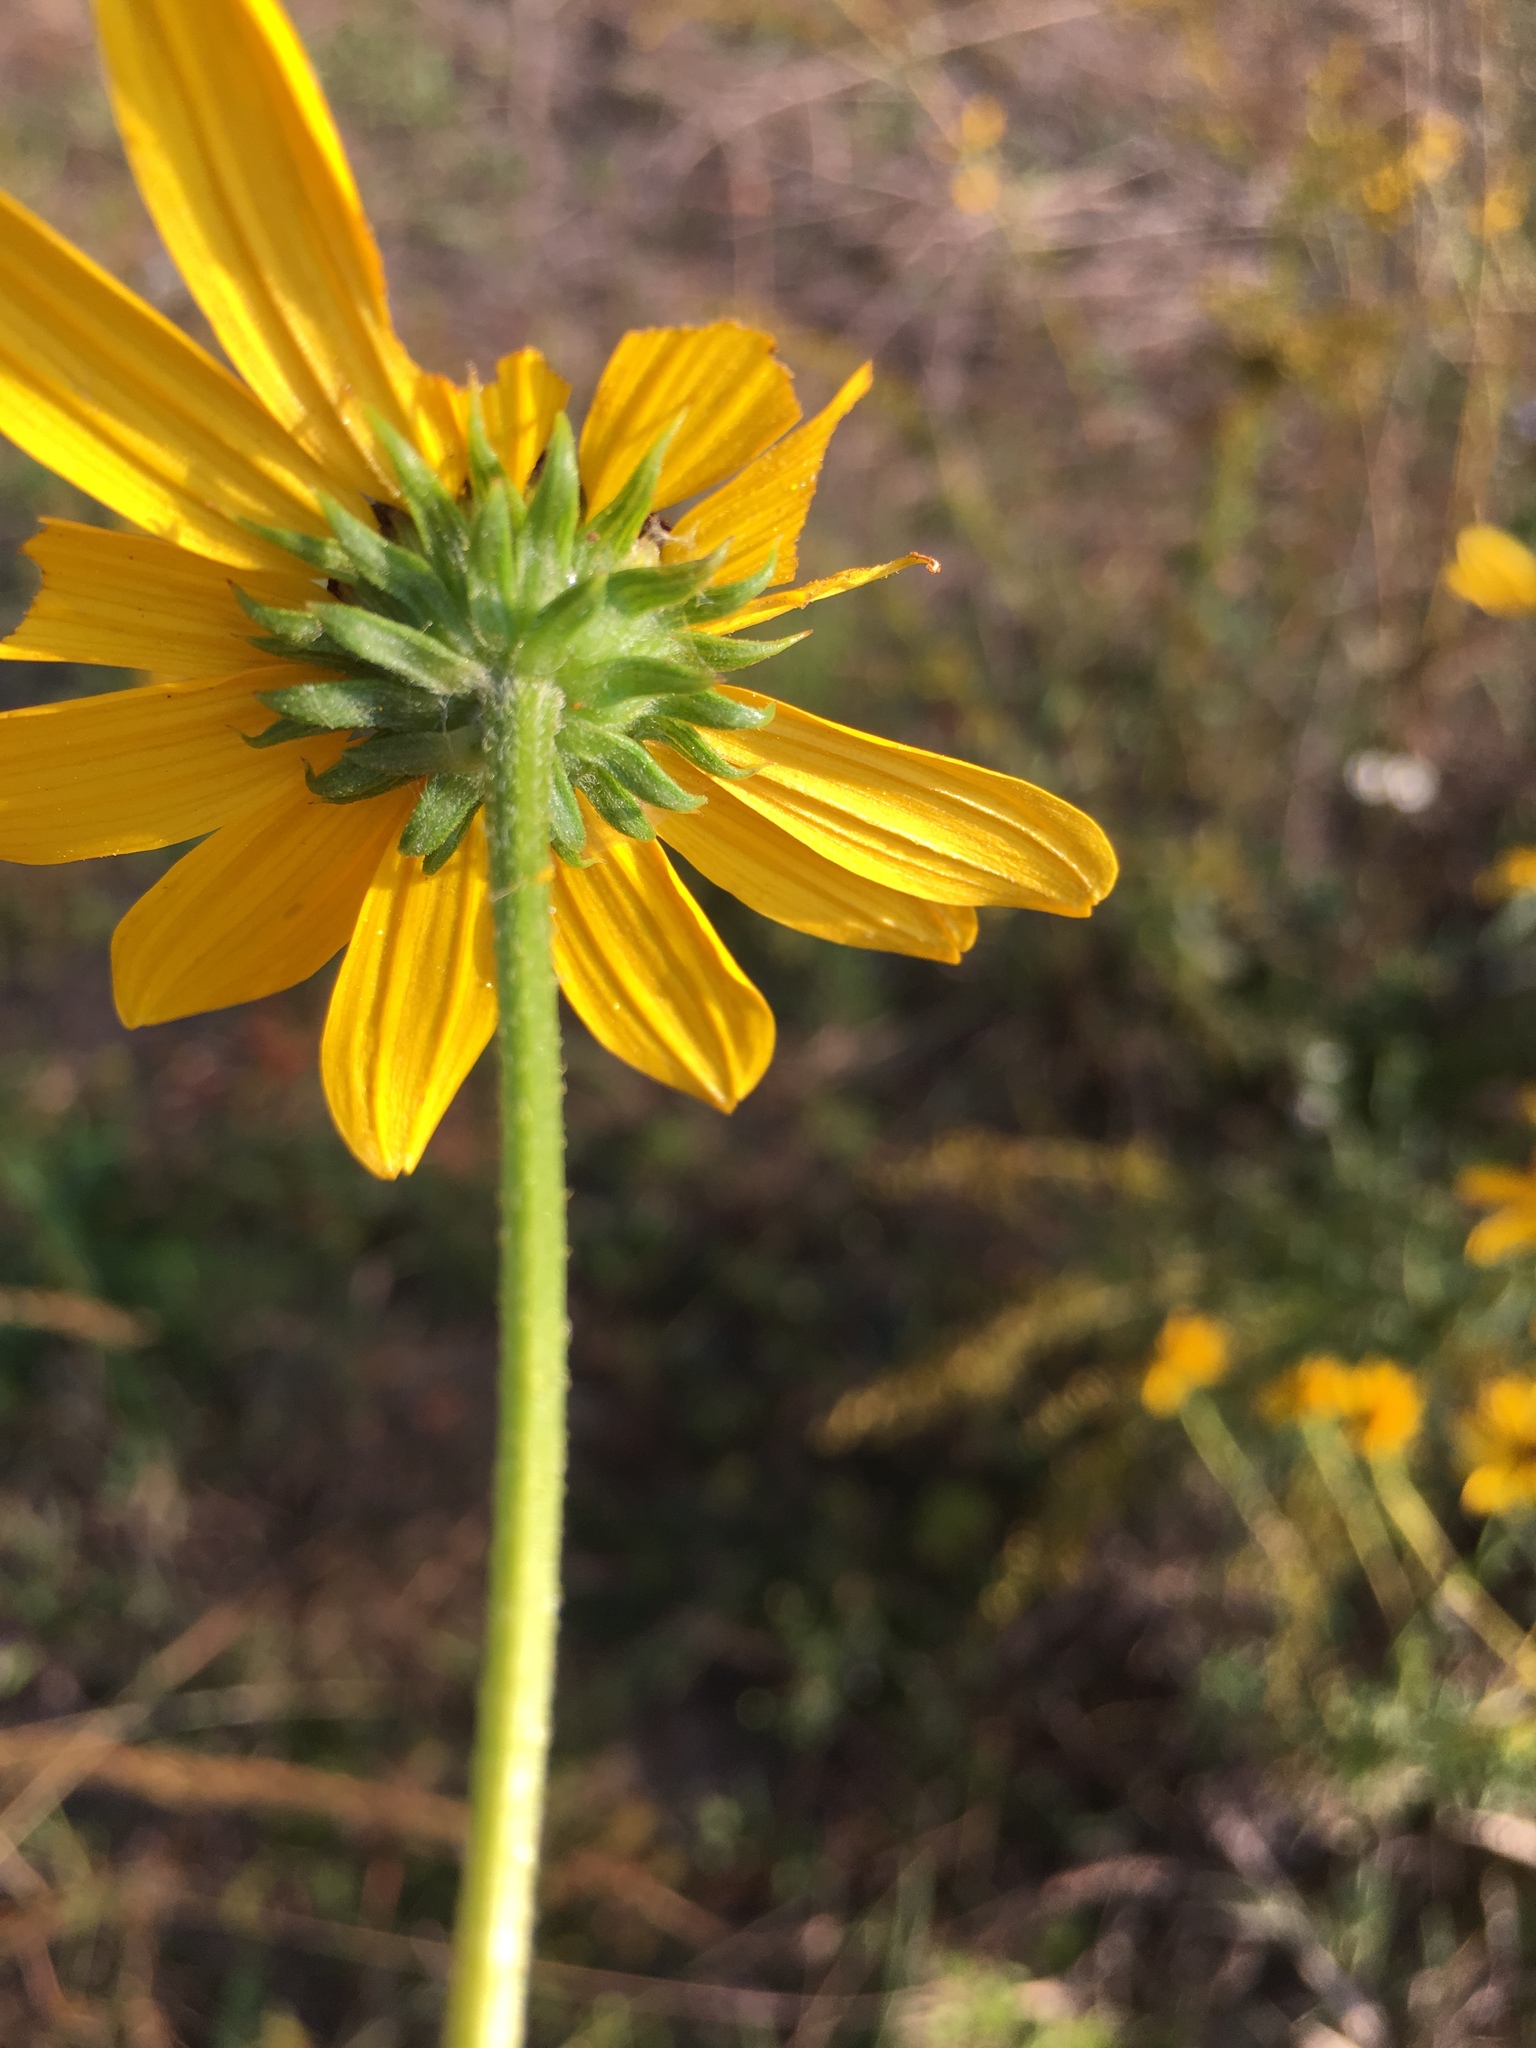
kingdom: Plantae
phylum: Tracheophyta
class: Magnoliopsida
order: Asterales
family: Asteraceae
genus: Helianthus
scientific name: Helianthus angustifolius
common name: Swamp sunflower
